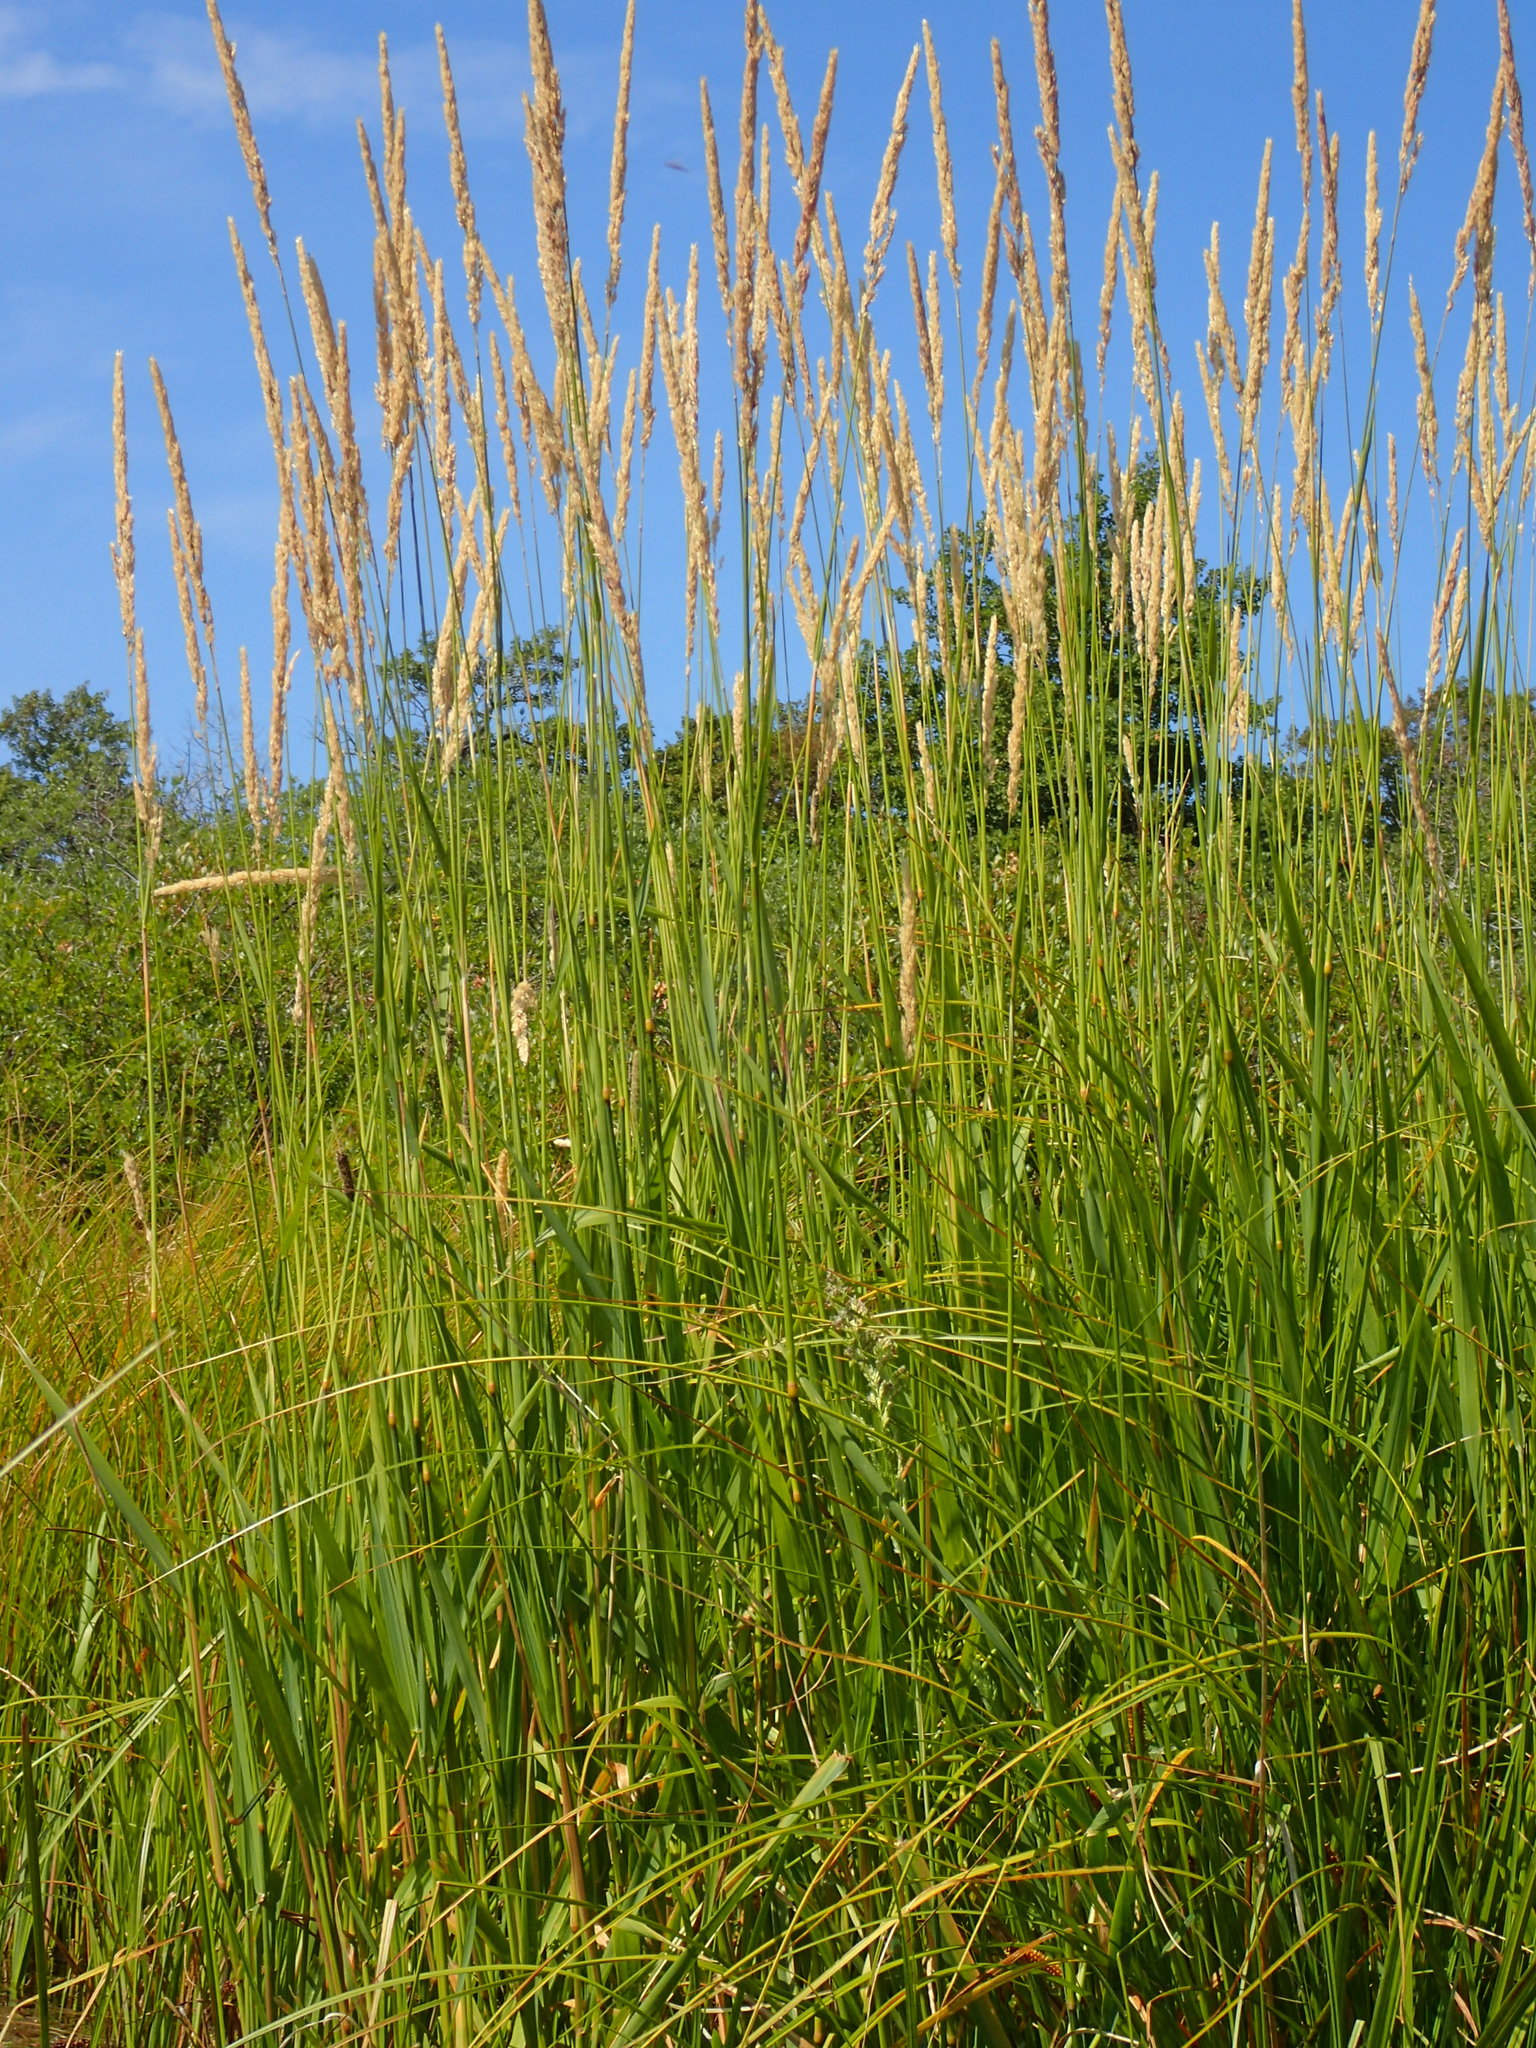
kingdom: Plantae
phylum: Tracheophyta
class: Liliopsida
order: Poales
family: Poaceae
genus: Phalaris
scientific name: Phalaris arundinacea
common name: Reed canary-grass
